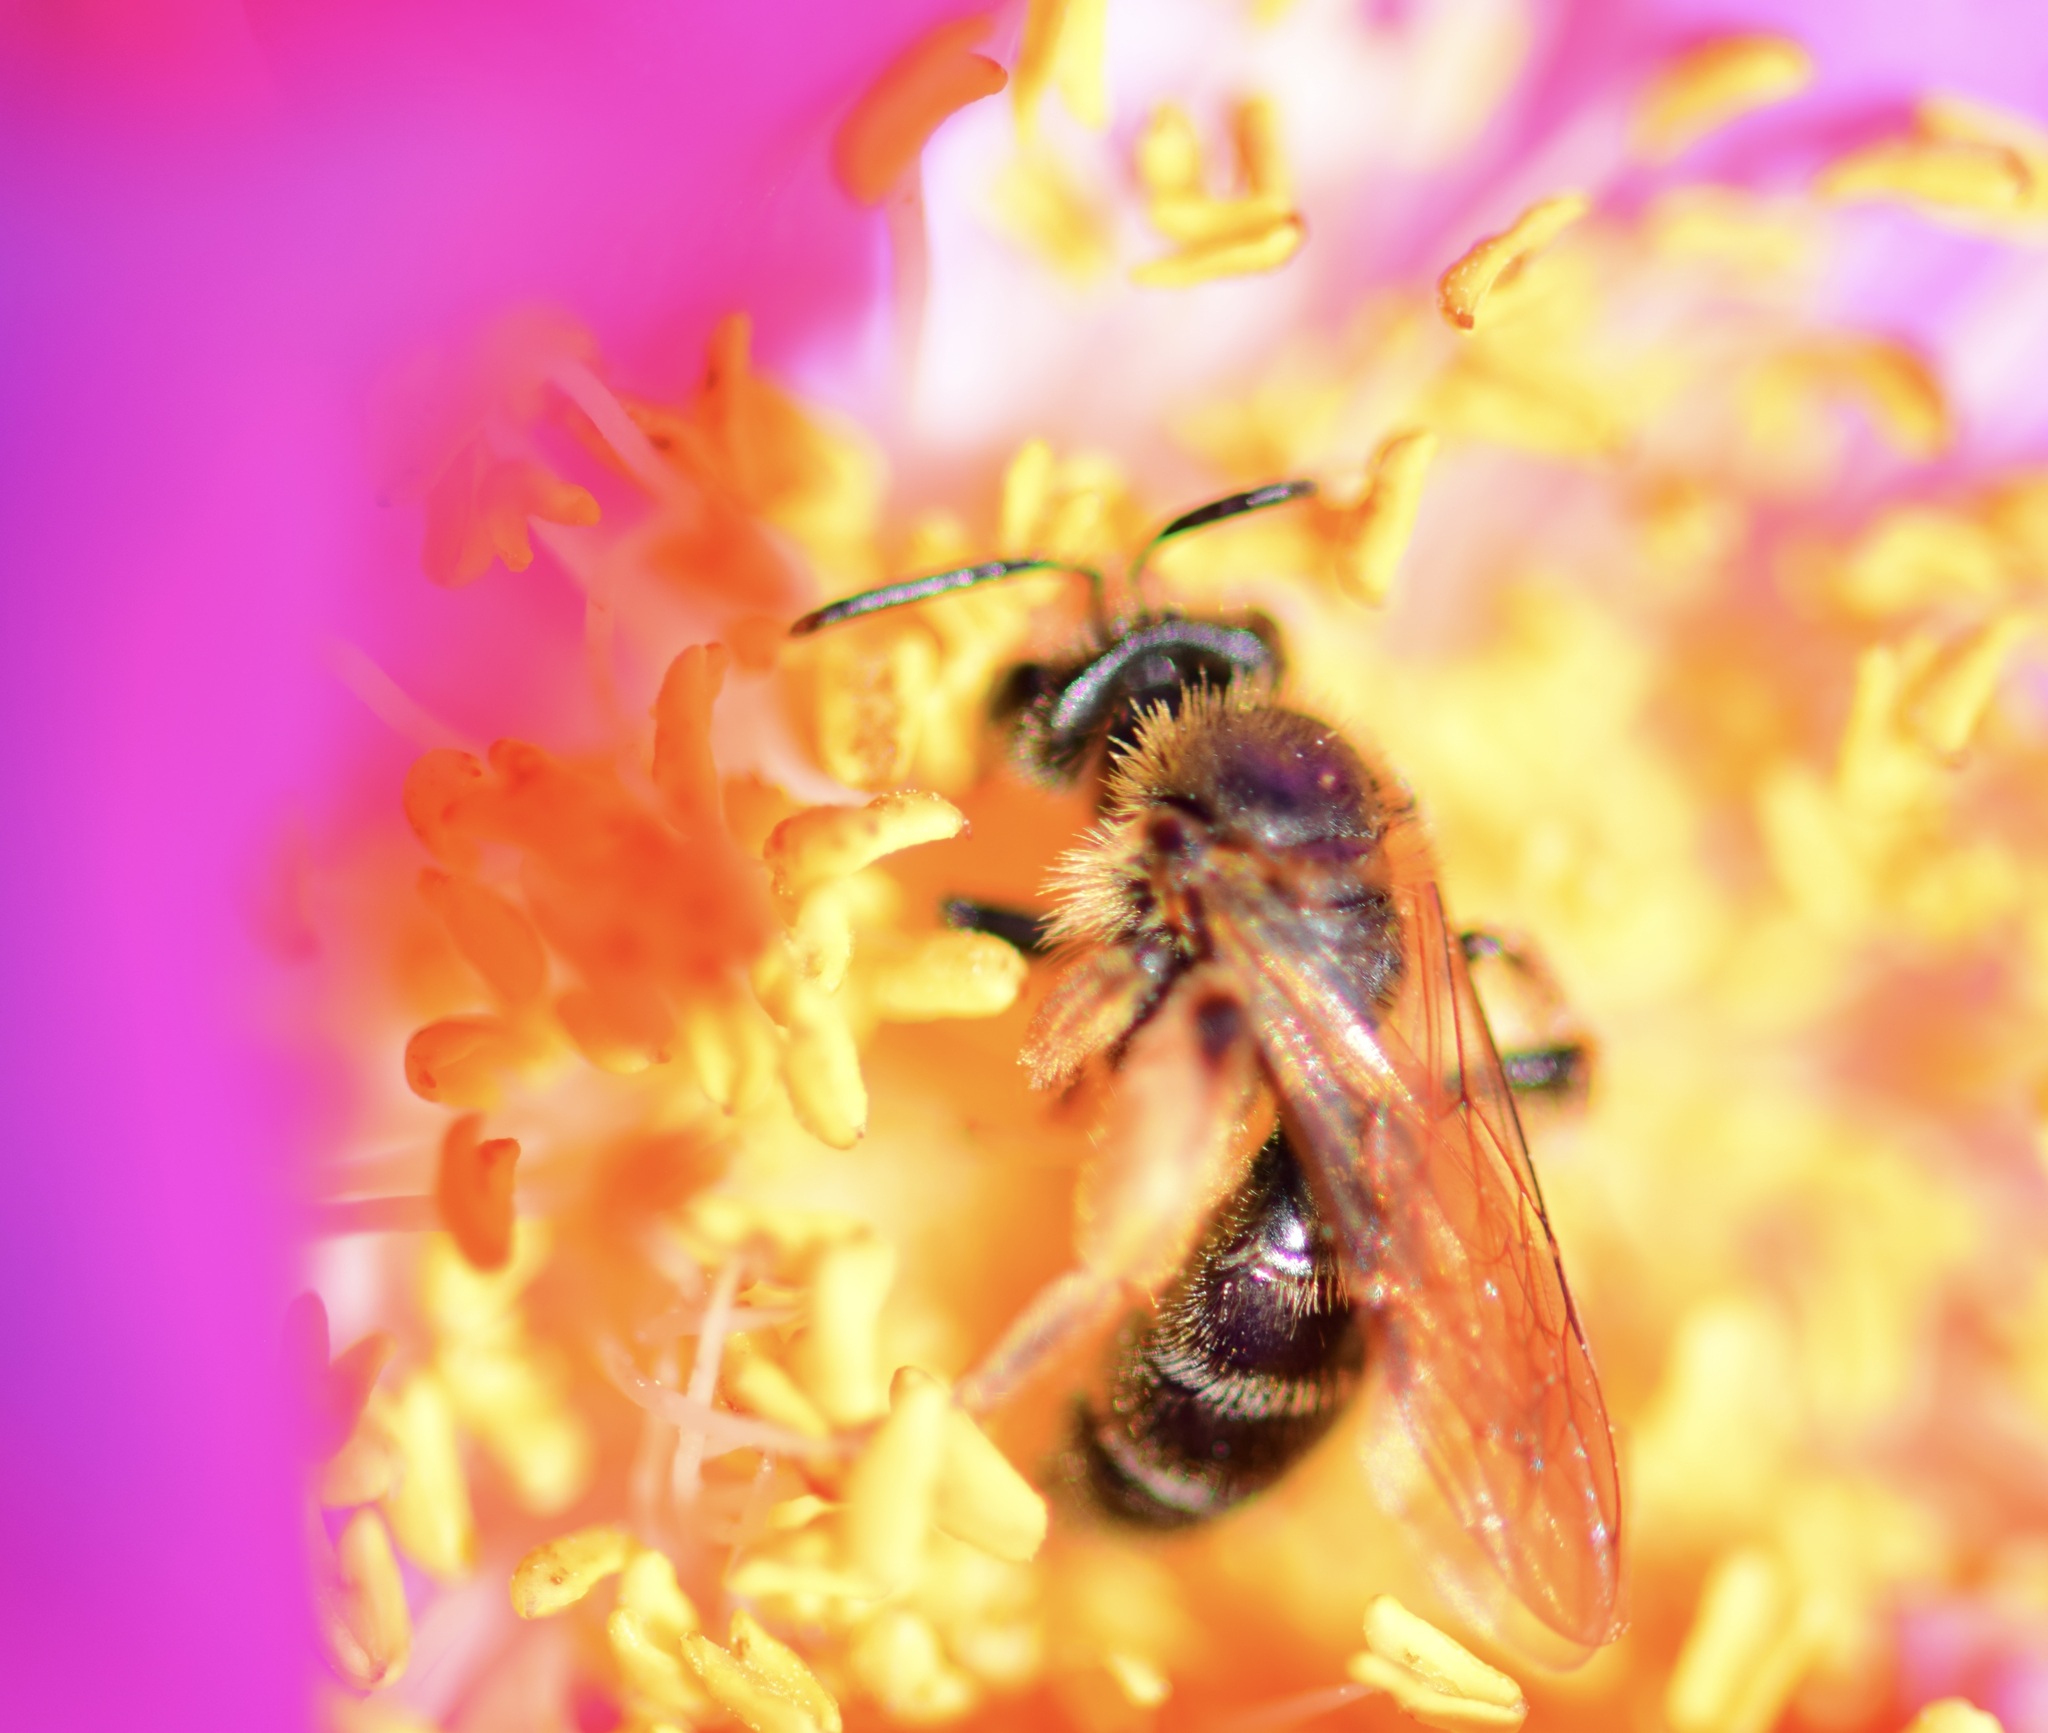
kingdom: Animalia
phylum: Arthropoda
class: Insecta
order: Hymenoptera
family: Andrenidae
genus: Andrena
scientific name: Andrena thaspii
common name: Parsnip miner bee
